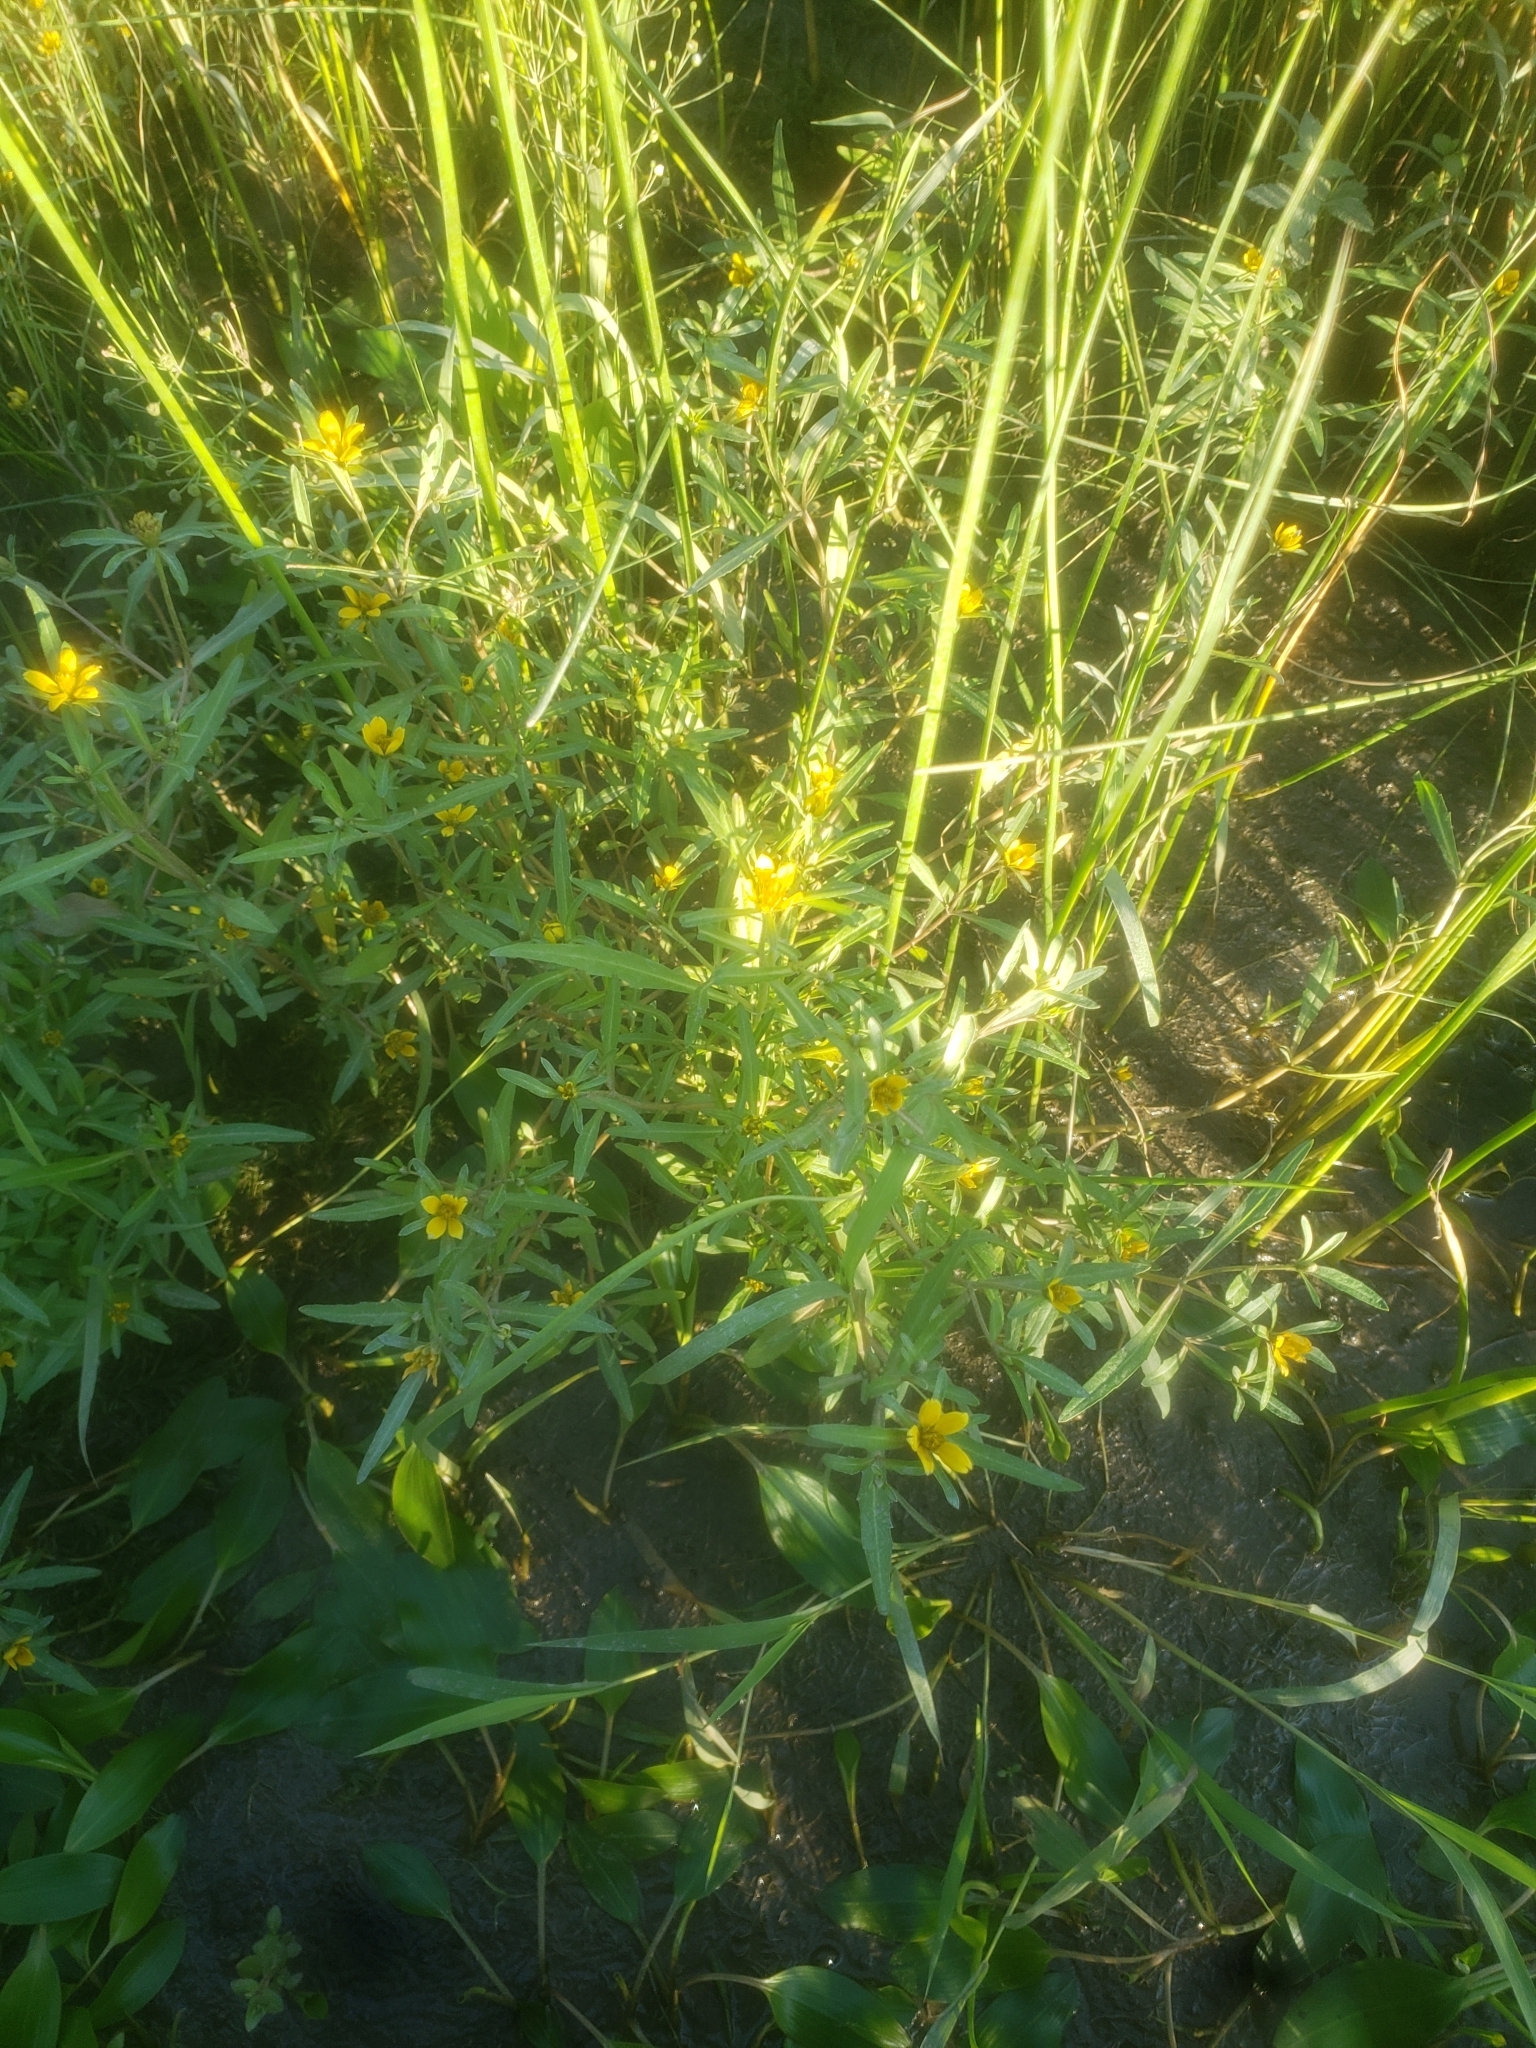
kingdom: Plantae
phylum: Tracheophyta
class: Magnoliopsida
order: Asterales
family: Asteraceae
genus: Bidens
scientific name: Bidens hyperborea
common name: Coastal beggarticks
